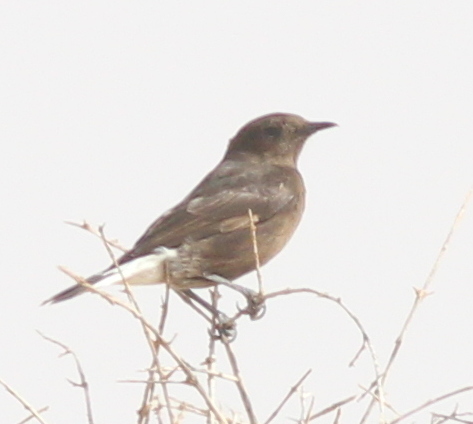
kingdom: Animalia
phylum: Chordata
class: Aves
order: Passeriformes
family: Muscicapidae
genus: Oenanthe
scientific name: Oenanthe leucura
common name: Black wheatear
